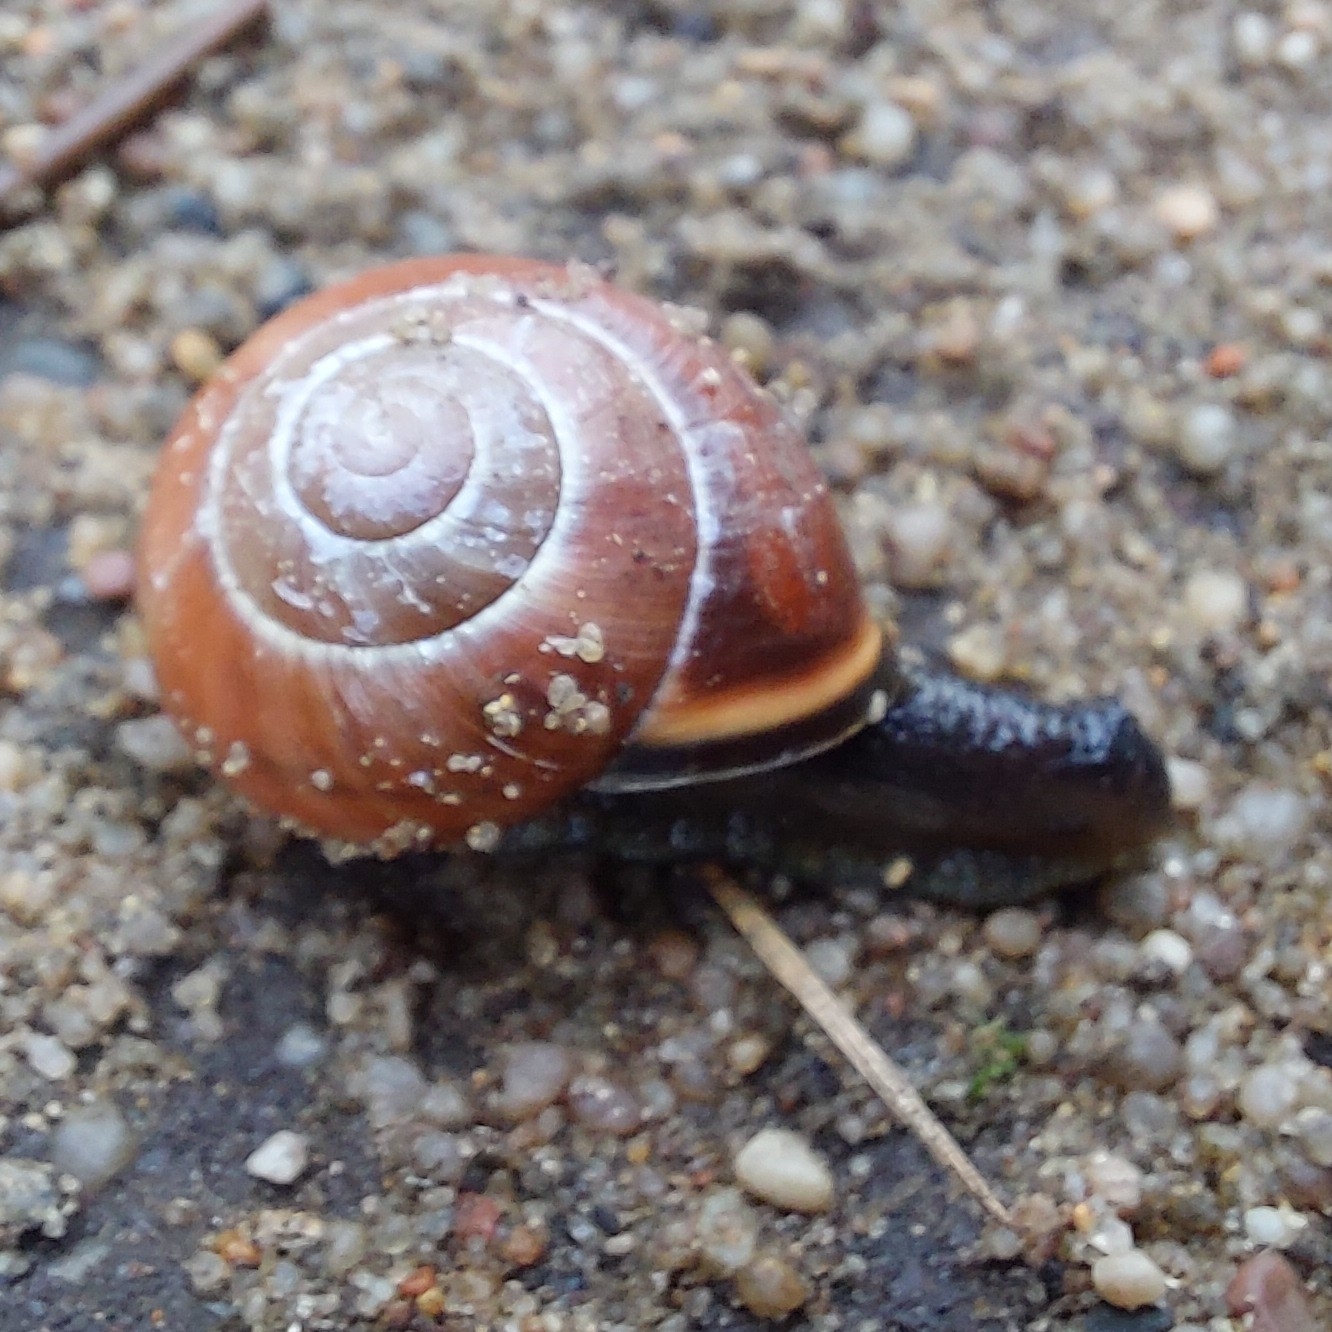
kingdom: Animalia
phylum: Mollusca
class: Gastropoda
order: Stylommatophora
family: Helicidae
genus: Cepaea
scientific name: Cepaea nemoralis
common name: Grovesnail
